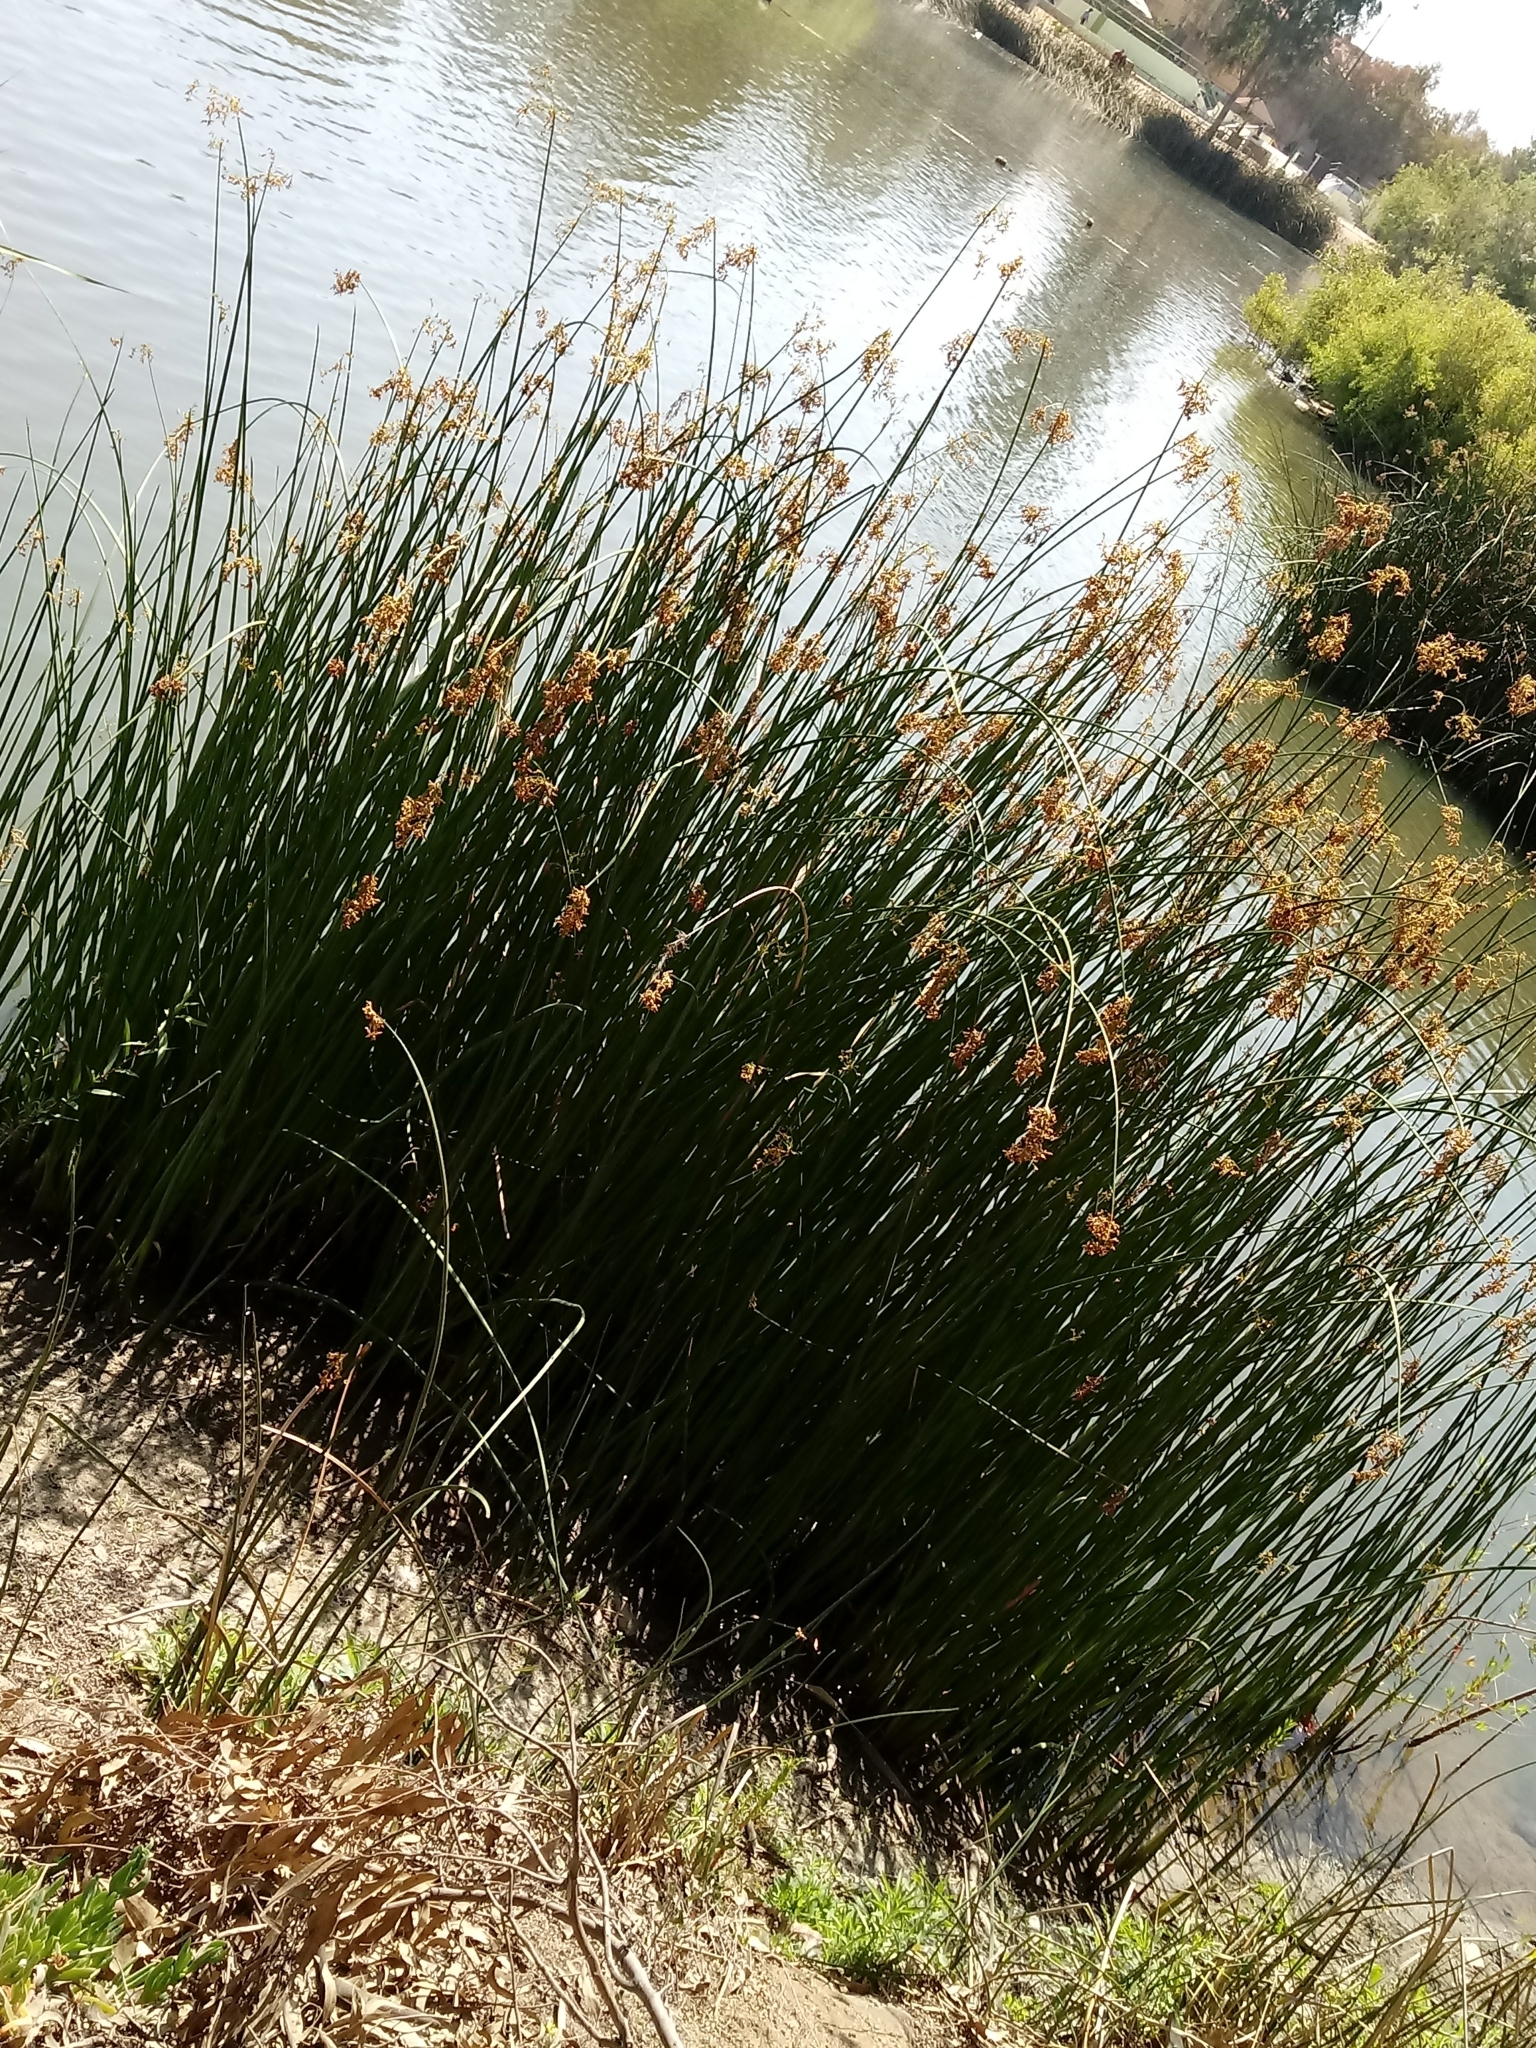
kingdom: Plantae
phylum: Tracheophyta
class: Liliopsida
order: Poales
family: Cyperaceae
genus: Schoenoplectus
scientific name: Schoenoplectus californicus
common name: California bulrush
